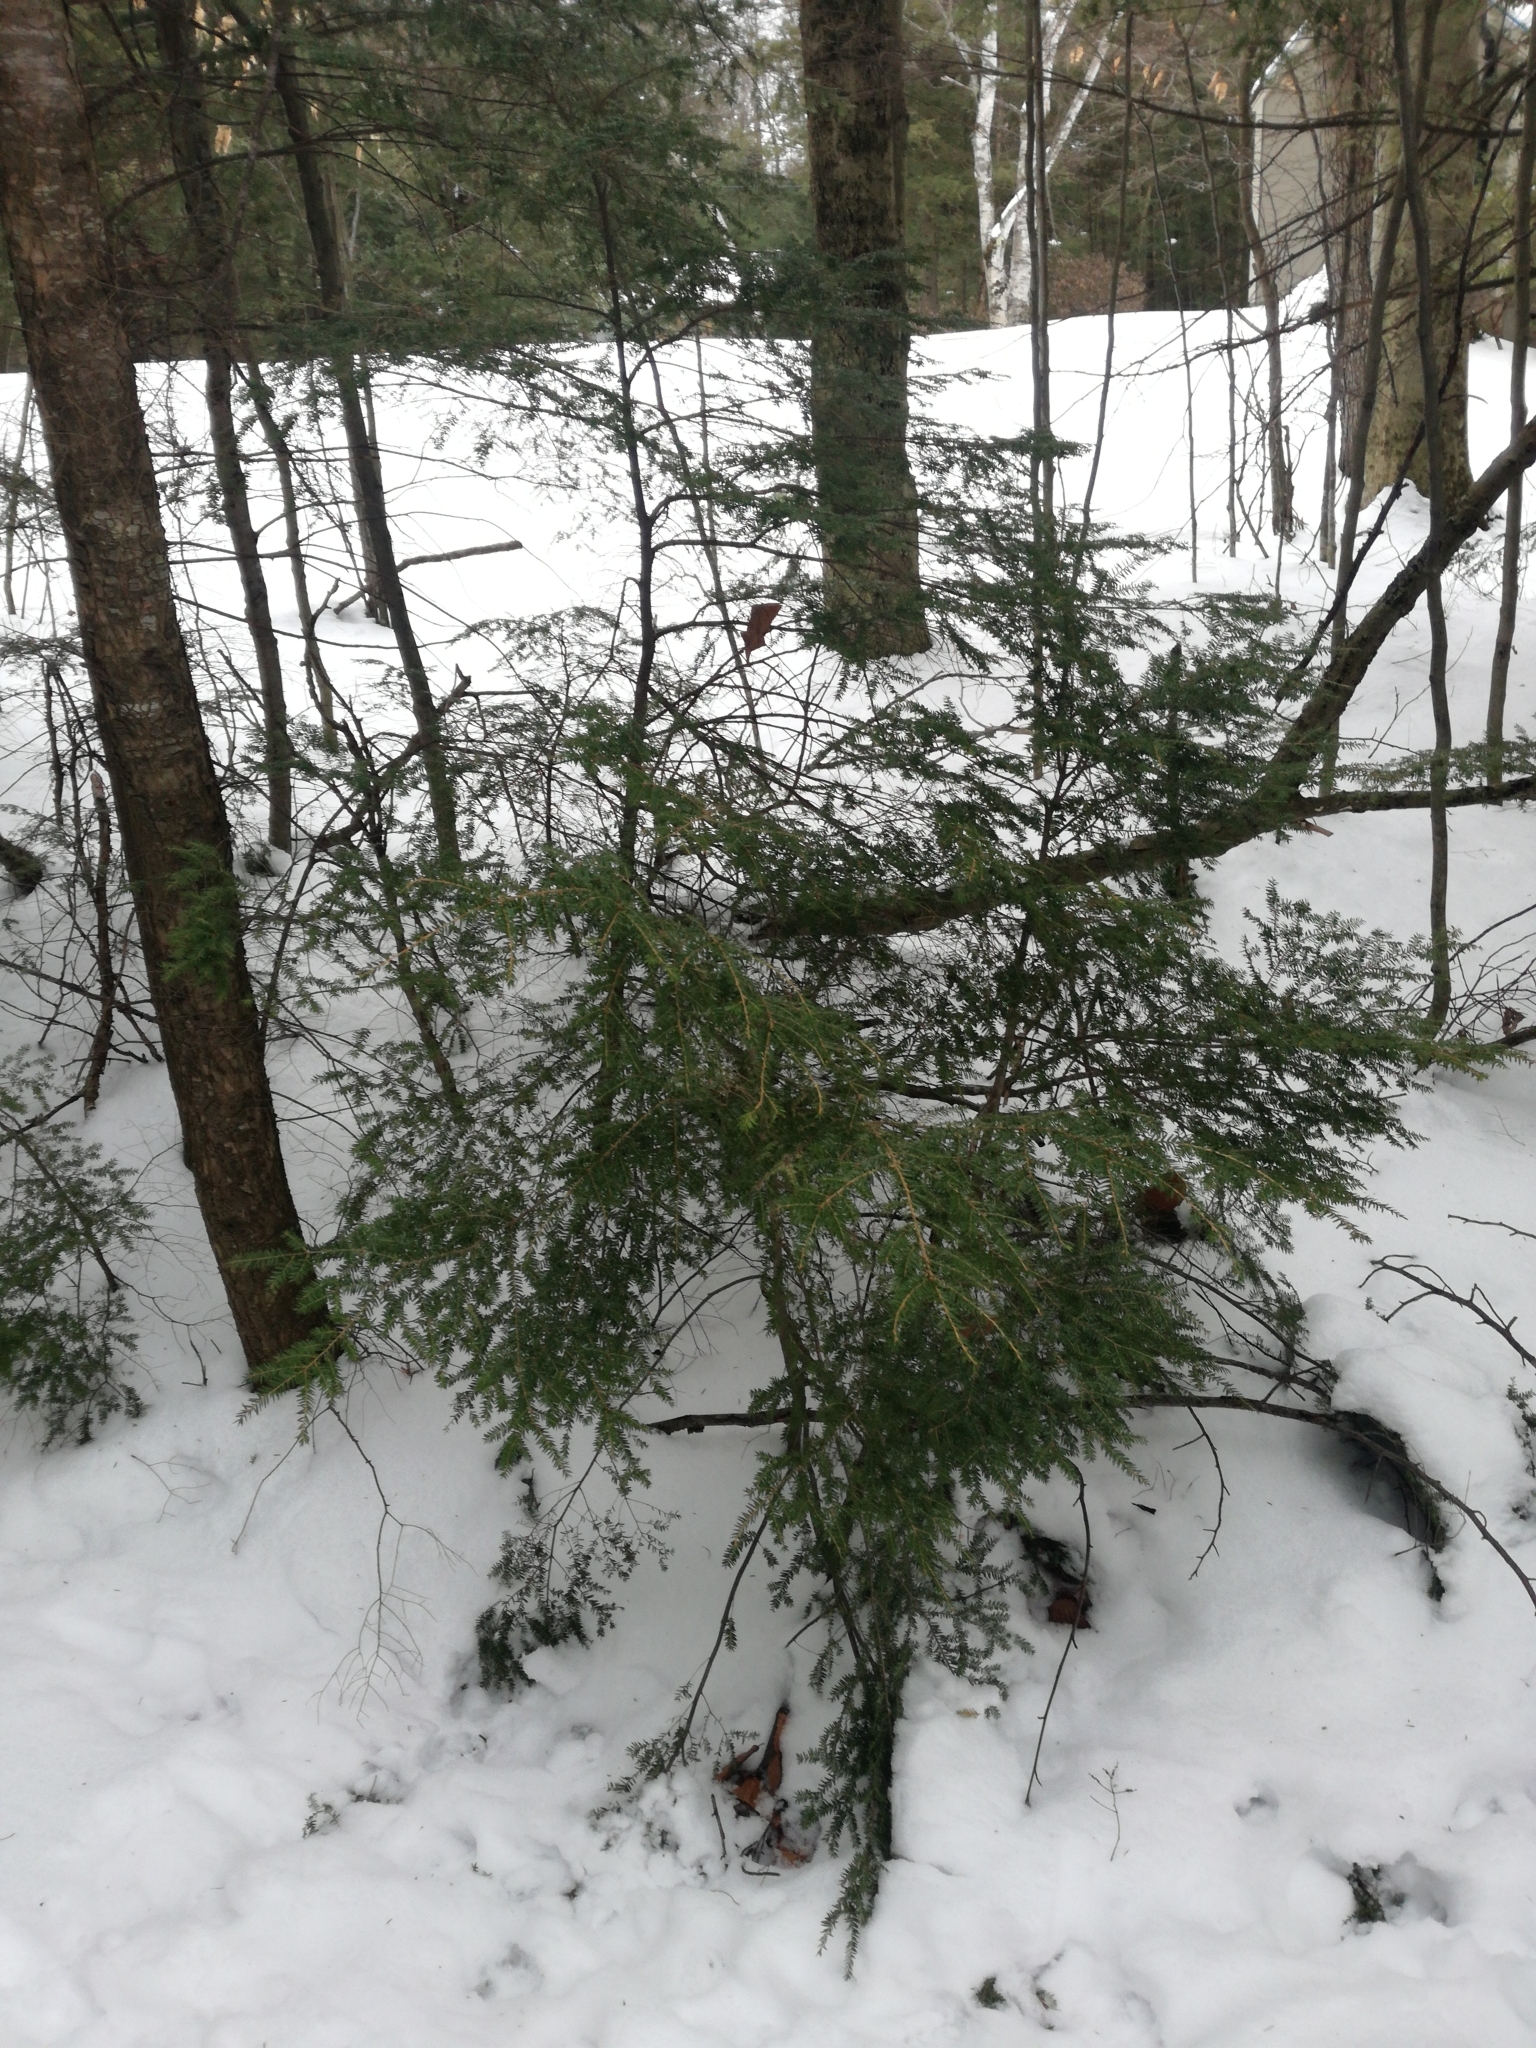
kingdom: Plantae
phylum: Tracheophyta
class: Pinopsida
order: Pinales
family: Pinaceae
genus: Tsuga
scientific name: Tsuga canadensis
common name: Eastern hemlock
